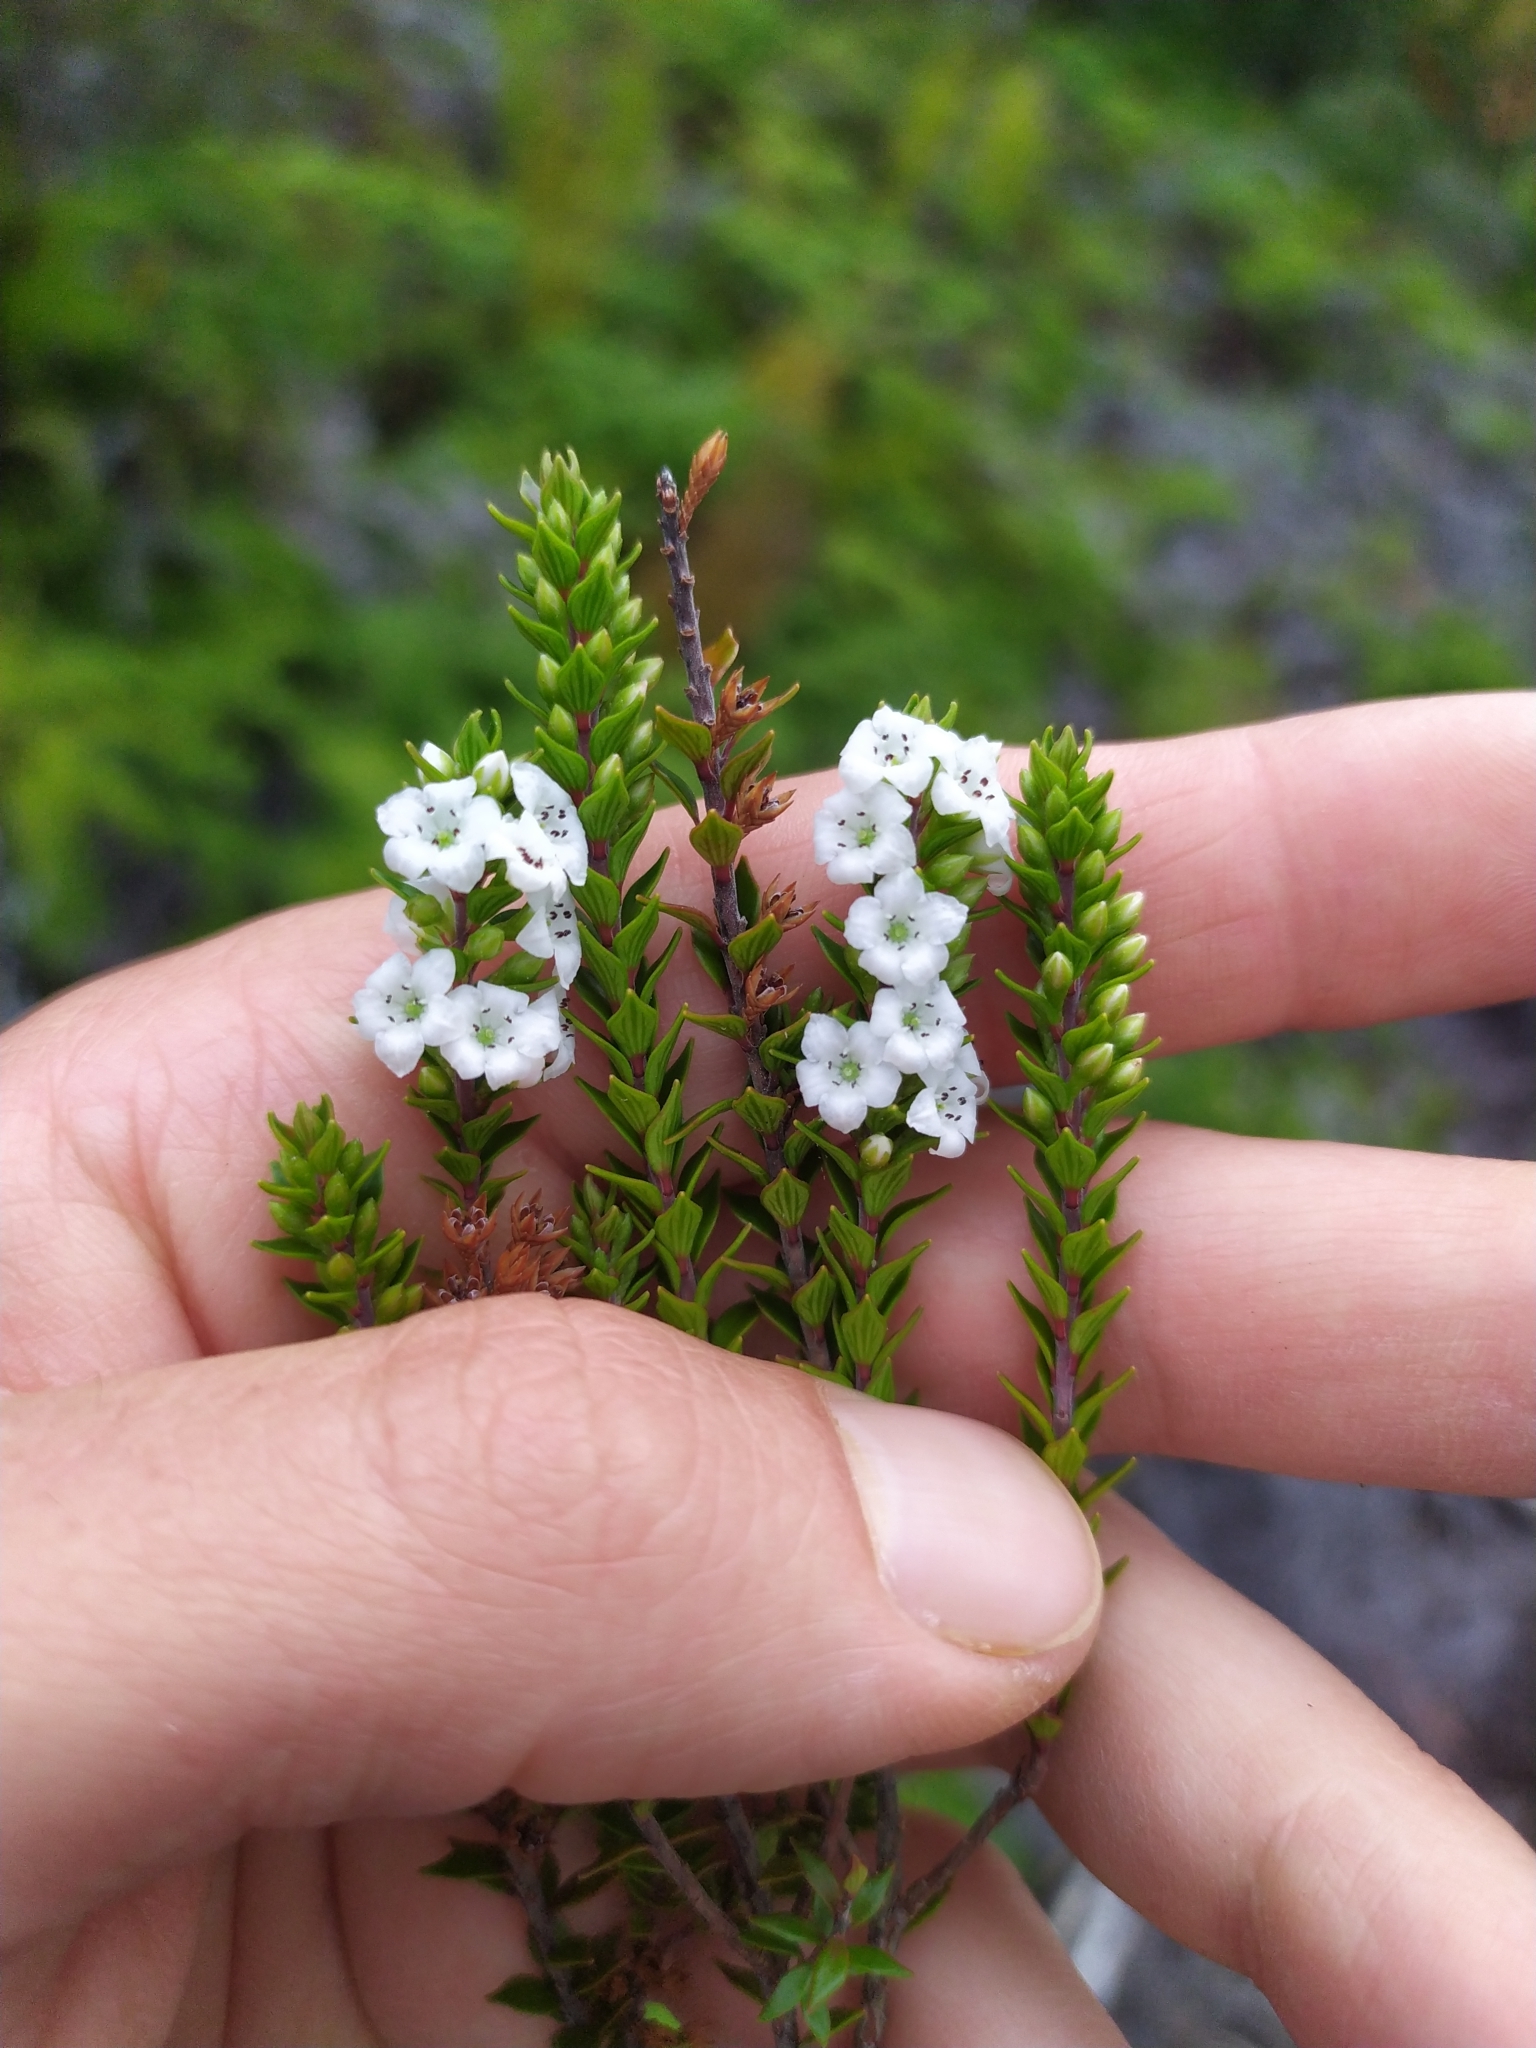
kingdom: Plantae
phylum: Tracheophyta
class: Magnoliopsida
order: Ericales
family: Ericaceae
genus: Epacris
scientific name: Epacris pauciflora
